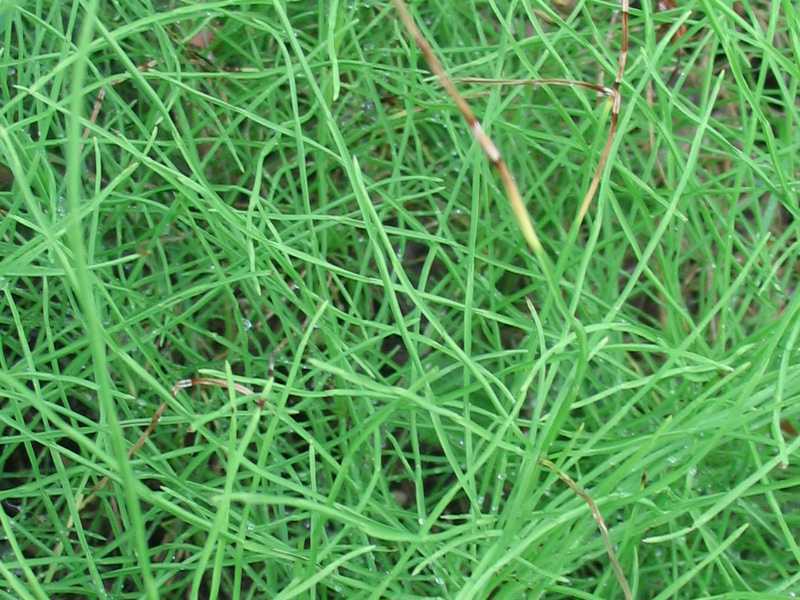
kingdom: Plantae
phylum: Tracheophyta
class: Polypodiopsida
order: Equisetales
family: Equisetaceae
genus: Equisetum
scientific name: Equisetum arvense
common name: Field horsetail
